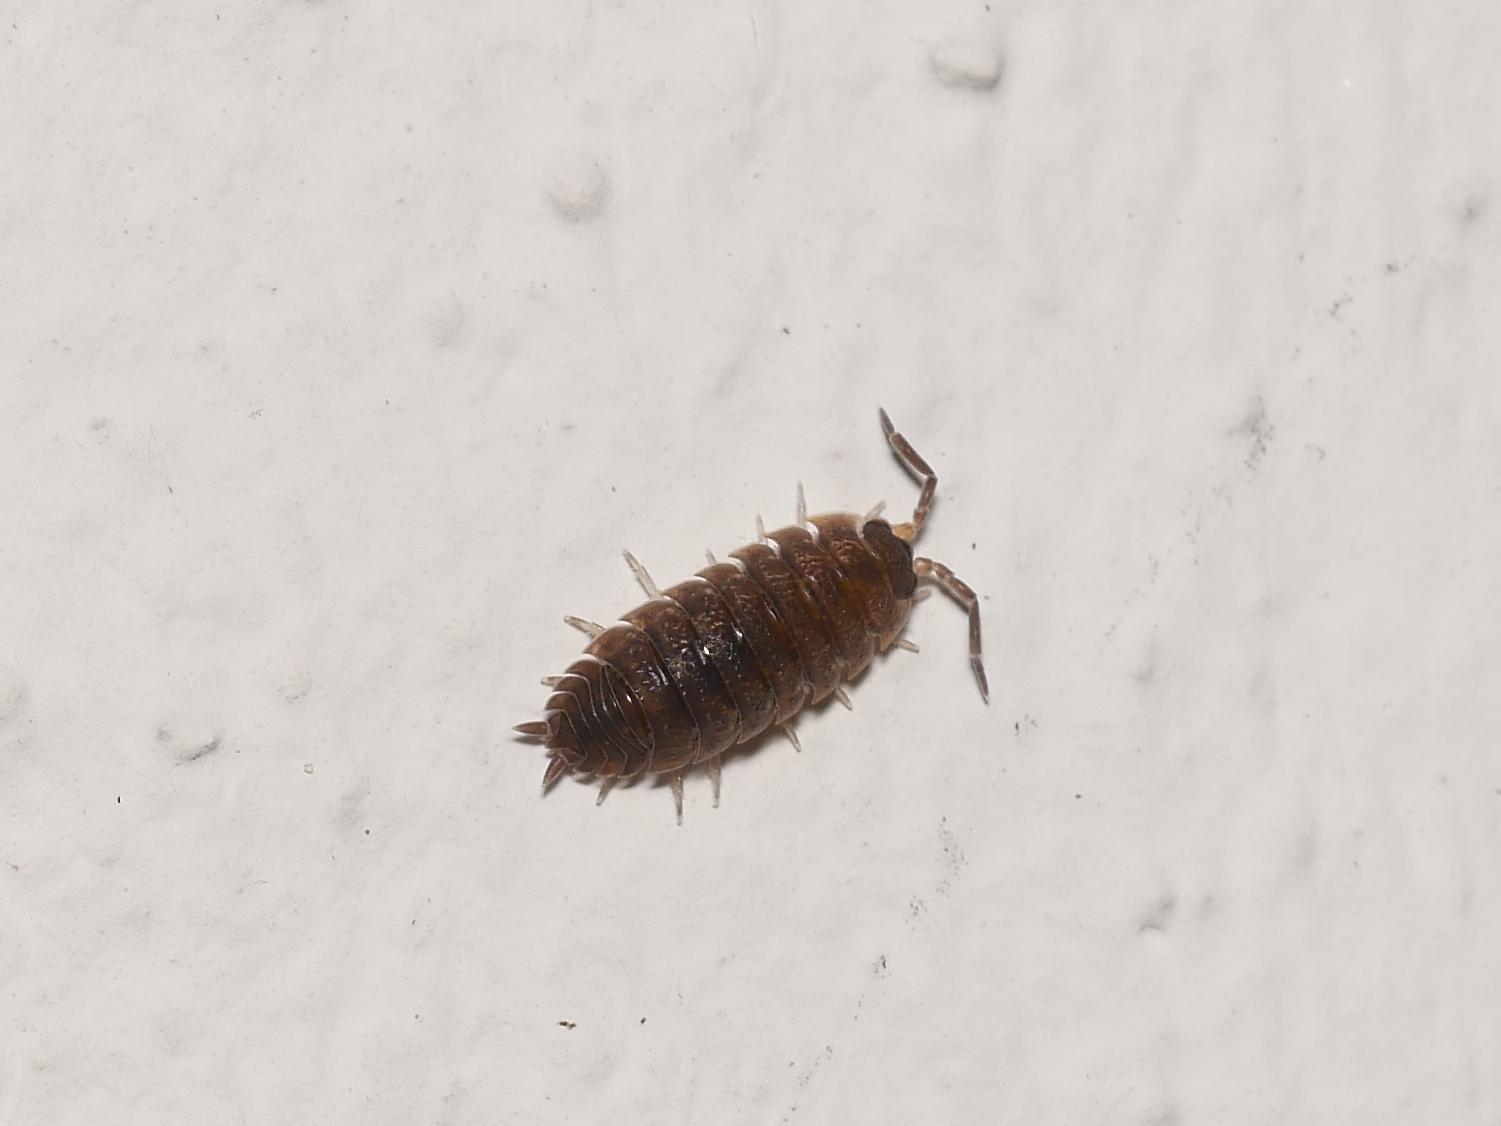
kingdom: Animalia
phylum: Arthropoda
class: Malacostraca
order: Isopoda
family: Porcellionidae
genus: Porcellio
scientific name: Porcellio scaber
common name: Common rough woodlouse
